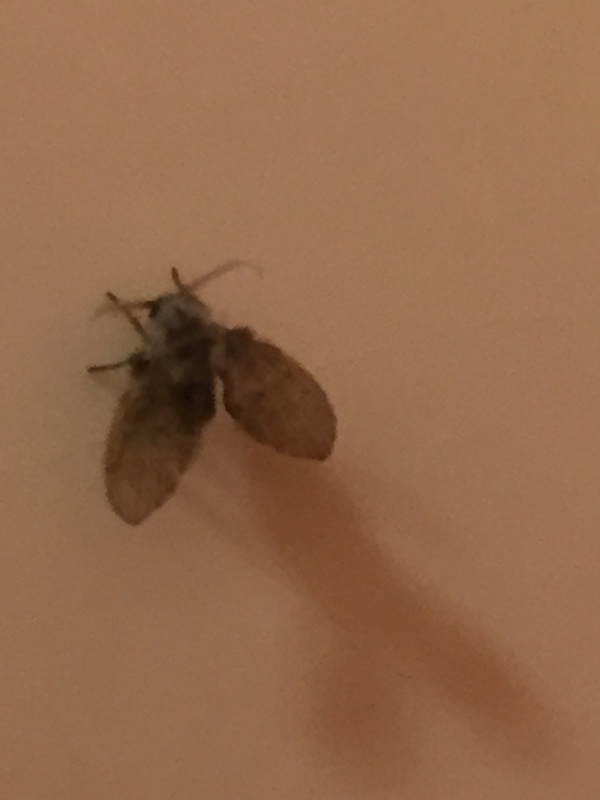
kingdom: Animalia
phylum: Arthropoda
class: Insecta
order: Diptera
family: Psychodidae
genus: Clogmia
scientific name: Clogmia albipunctatus
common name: White-spotted moth fly
